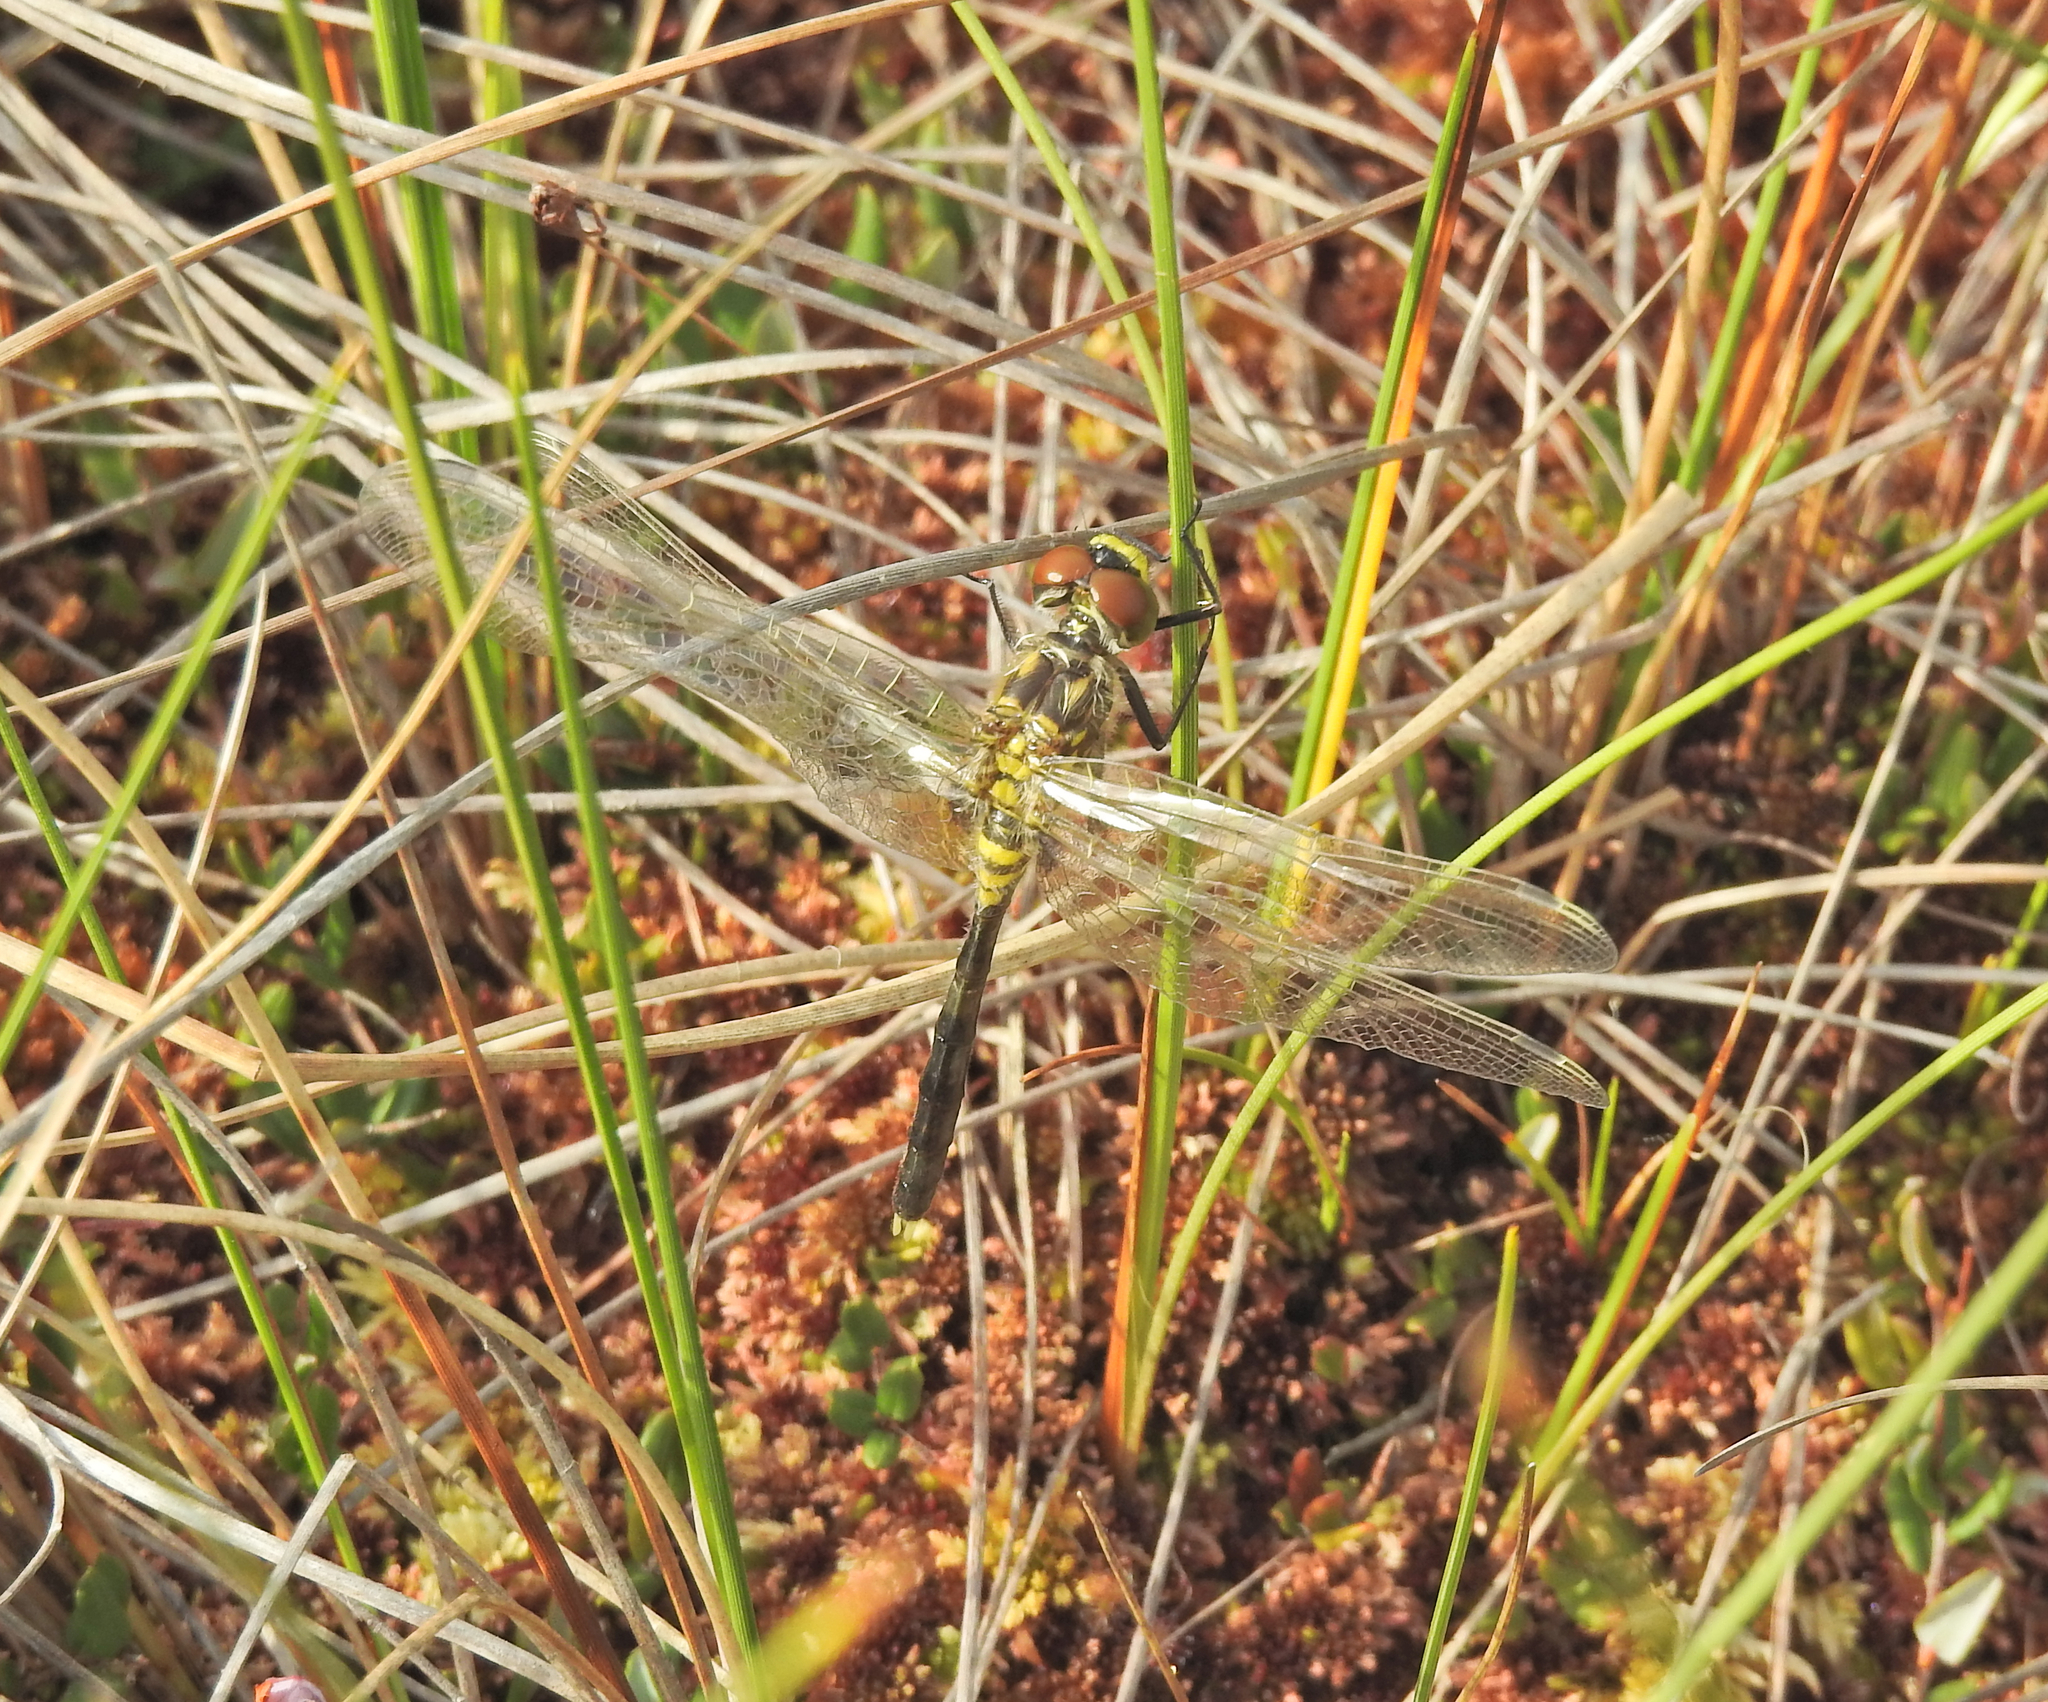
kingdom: Animalia
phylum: Arthropoda
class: Insecta
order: Odonata
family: Libellulidae
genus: Leucorrhinia
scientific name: Leucorrhinia albifrons
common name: Dark whiteface
